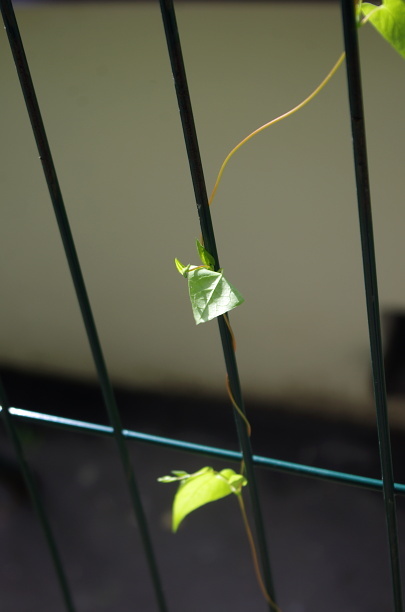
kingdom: Plantae
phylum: Tracheophyta
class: Magnoliopsida
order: Caryophyllales
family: Polygonaceae
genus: Fallopia
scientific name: Fallopia dumetorum
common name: Copse-bindweed
